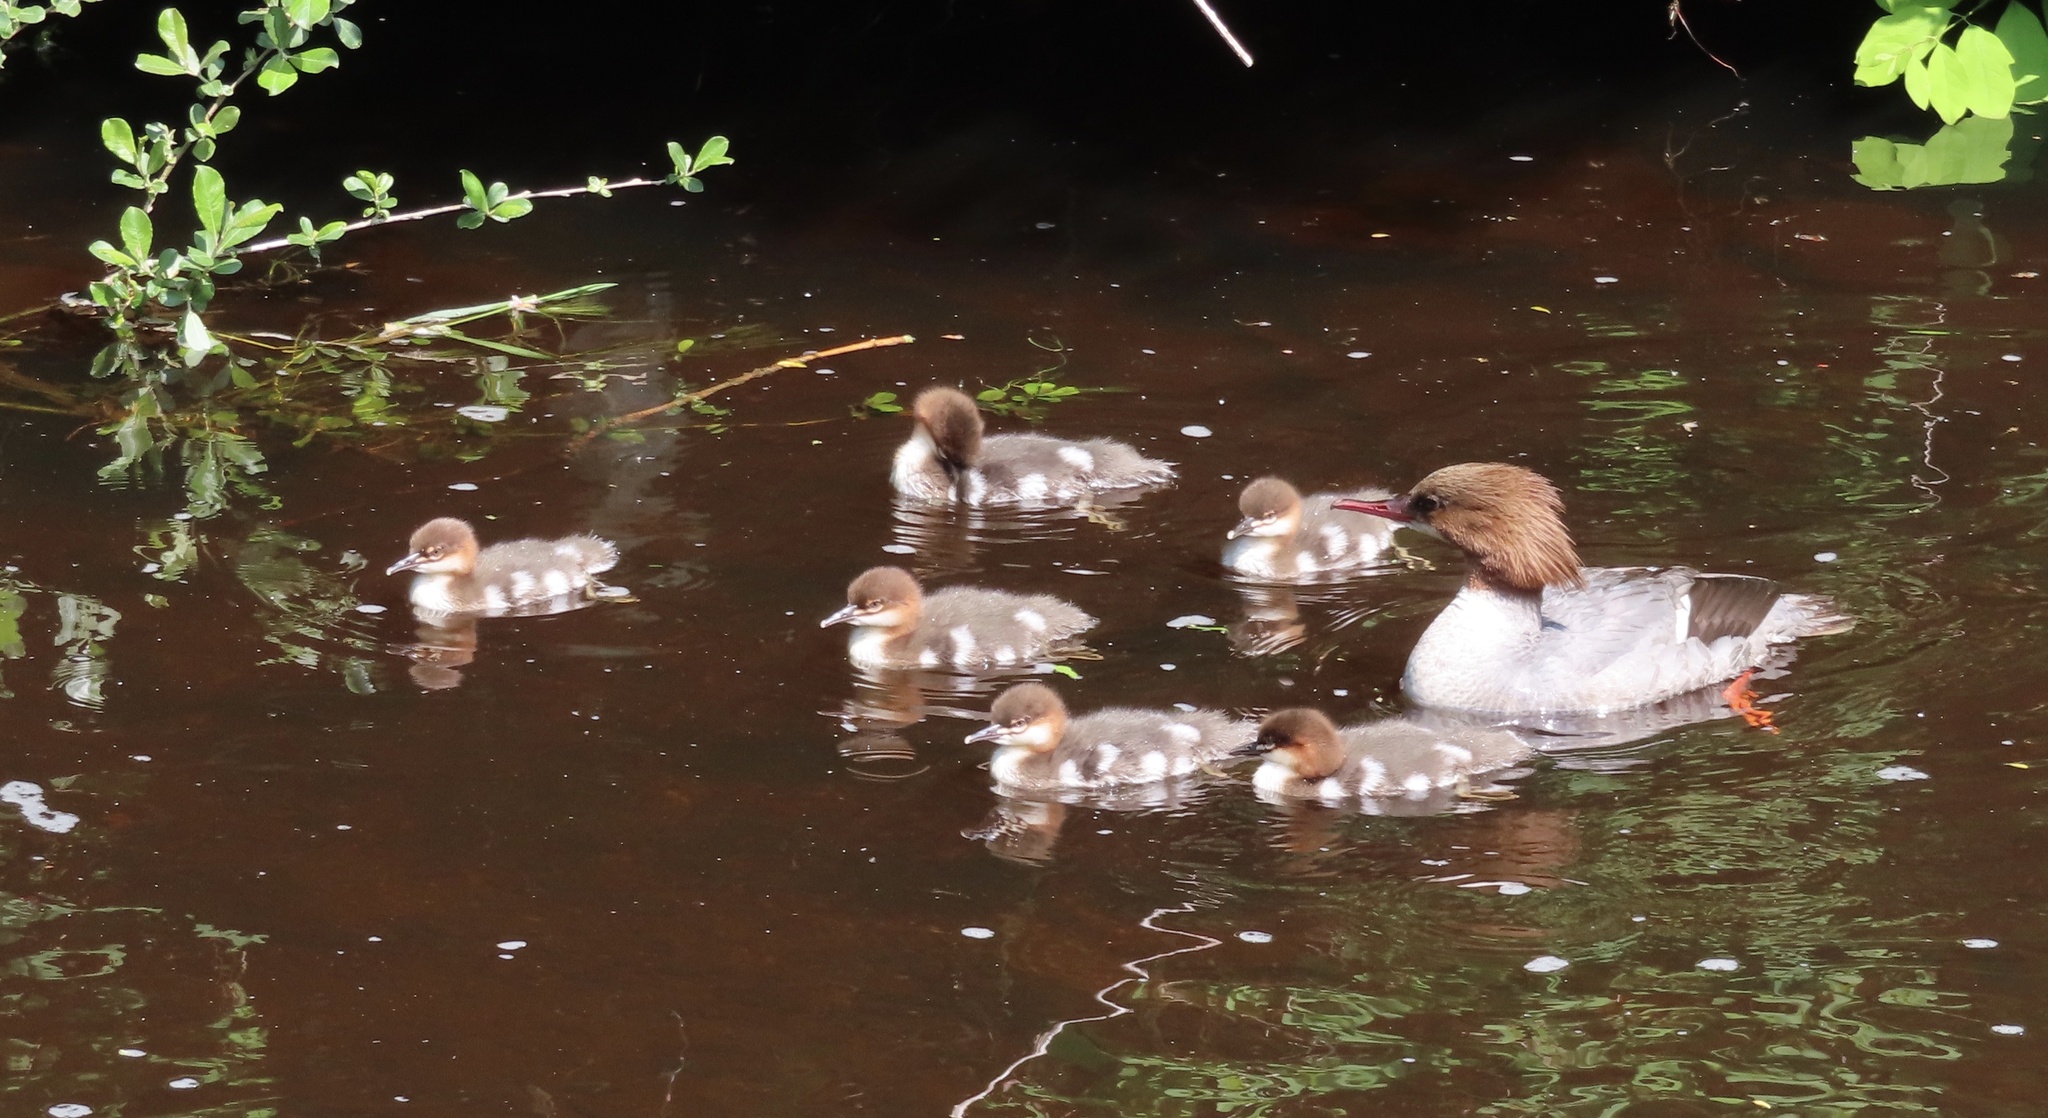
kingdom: Animalia
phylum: Chordata
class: Aves
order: Anseriformes
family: Anatidae
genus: Mergus
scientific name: Mergus merganser
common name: Common merganser
